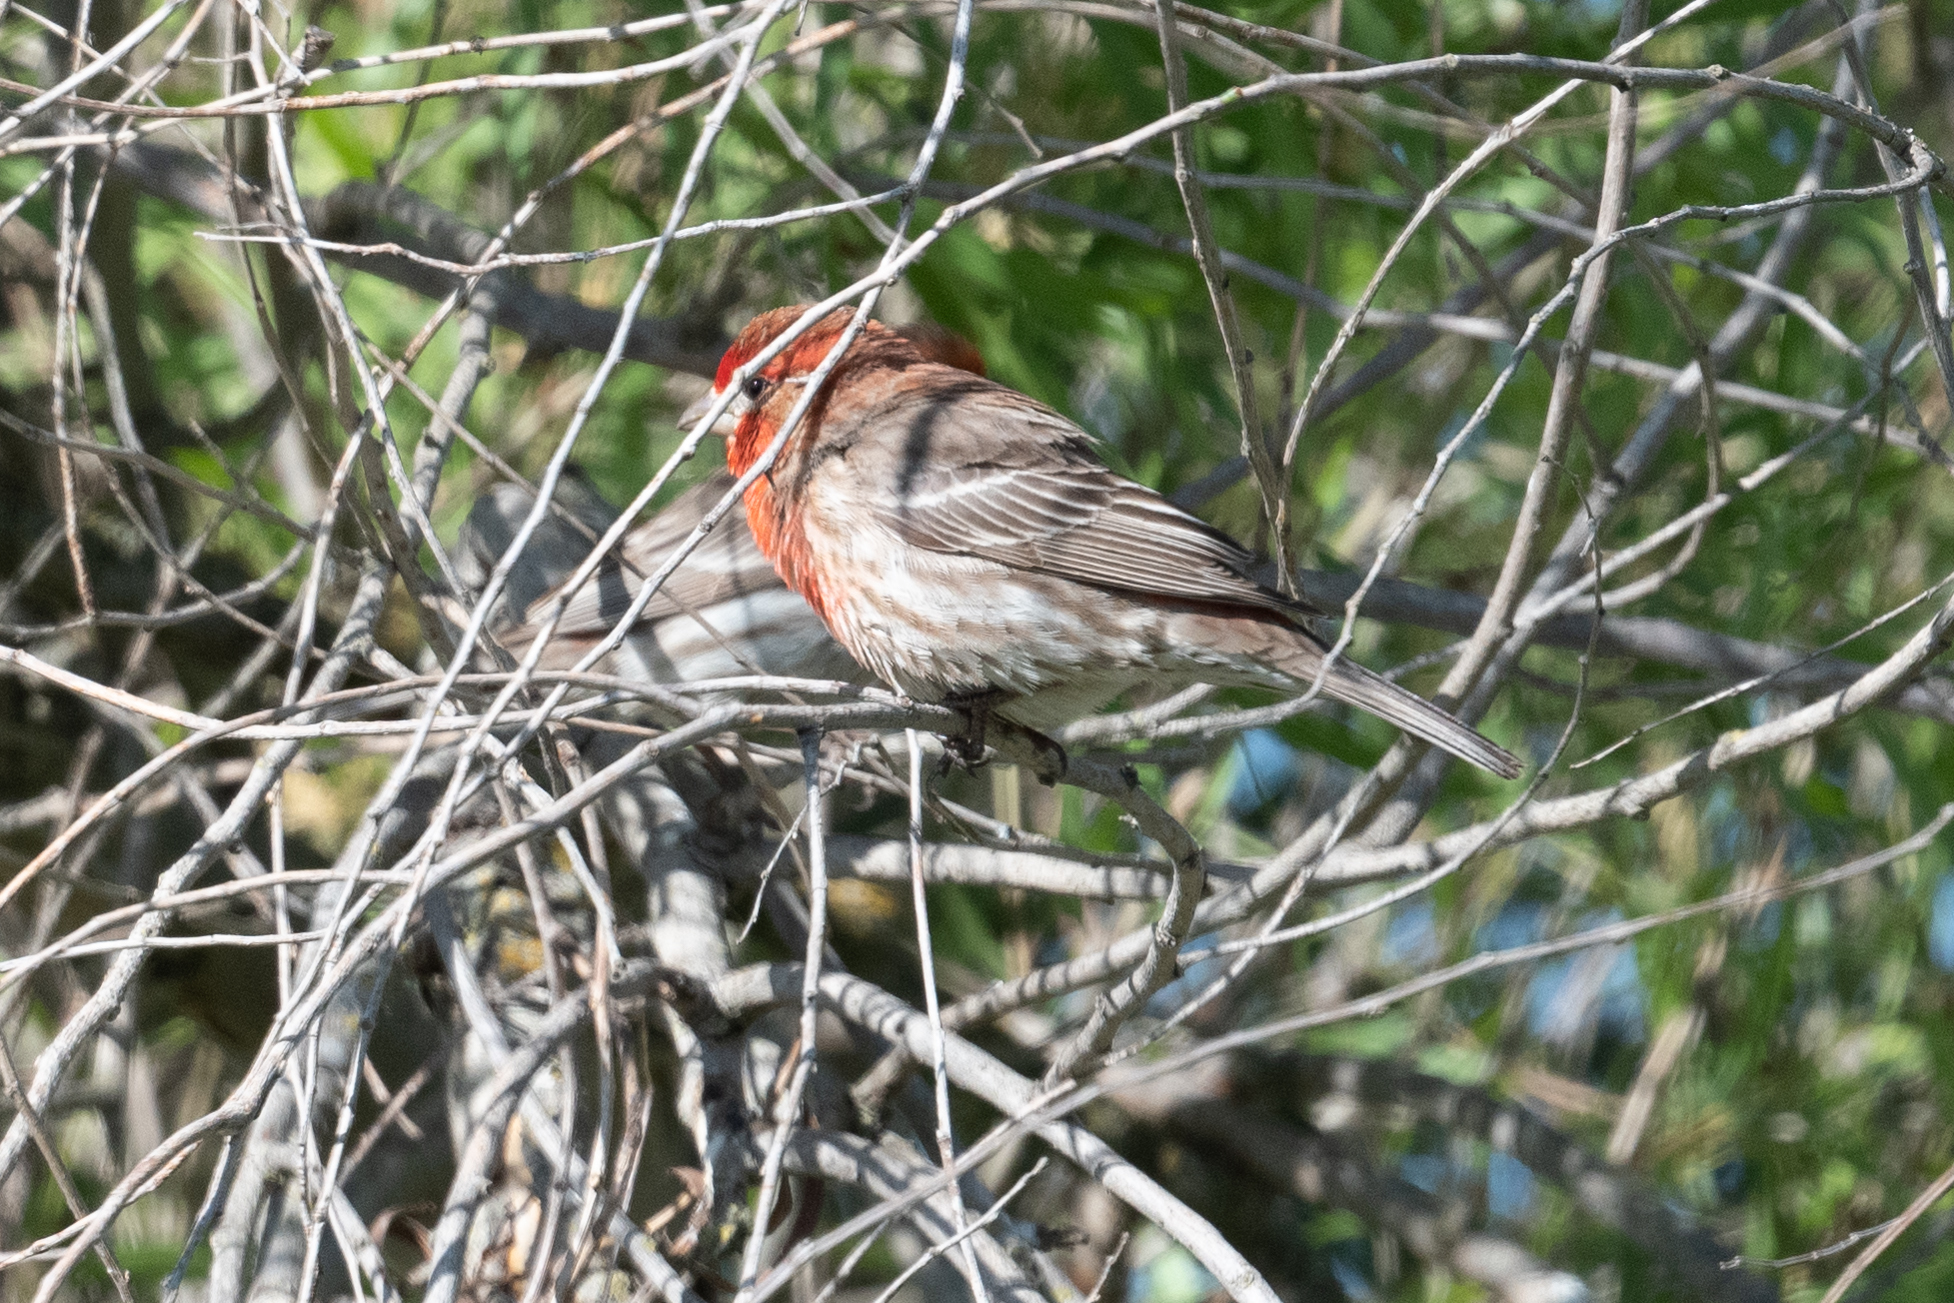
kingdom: Animalia
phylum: Chordata
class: Aves
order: Passeriformes
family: Fringillidae
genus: Haemorhous
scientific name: Haemorhous mexicanus
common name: House finch
